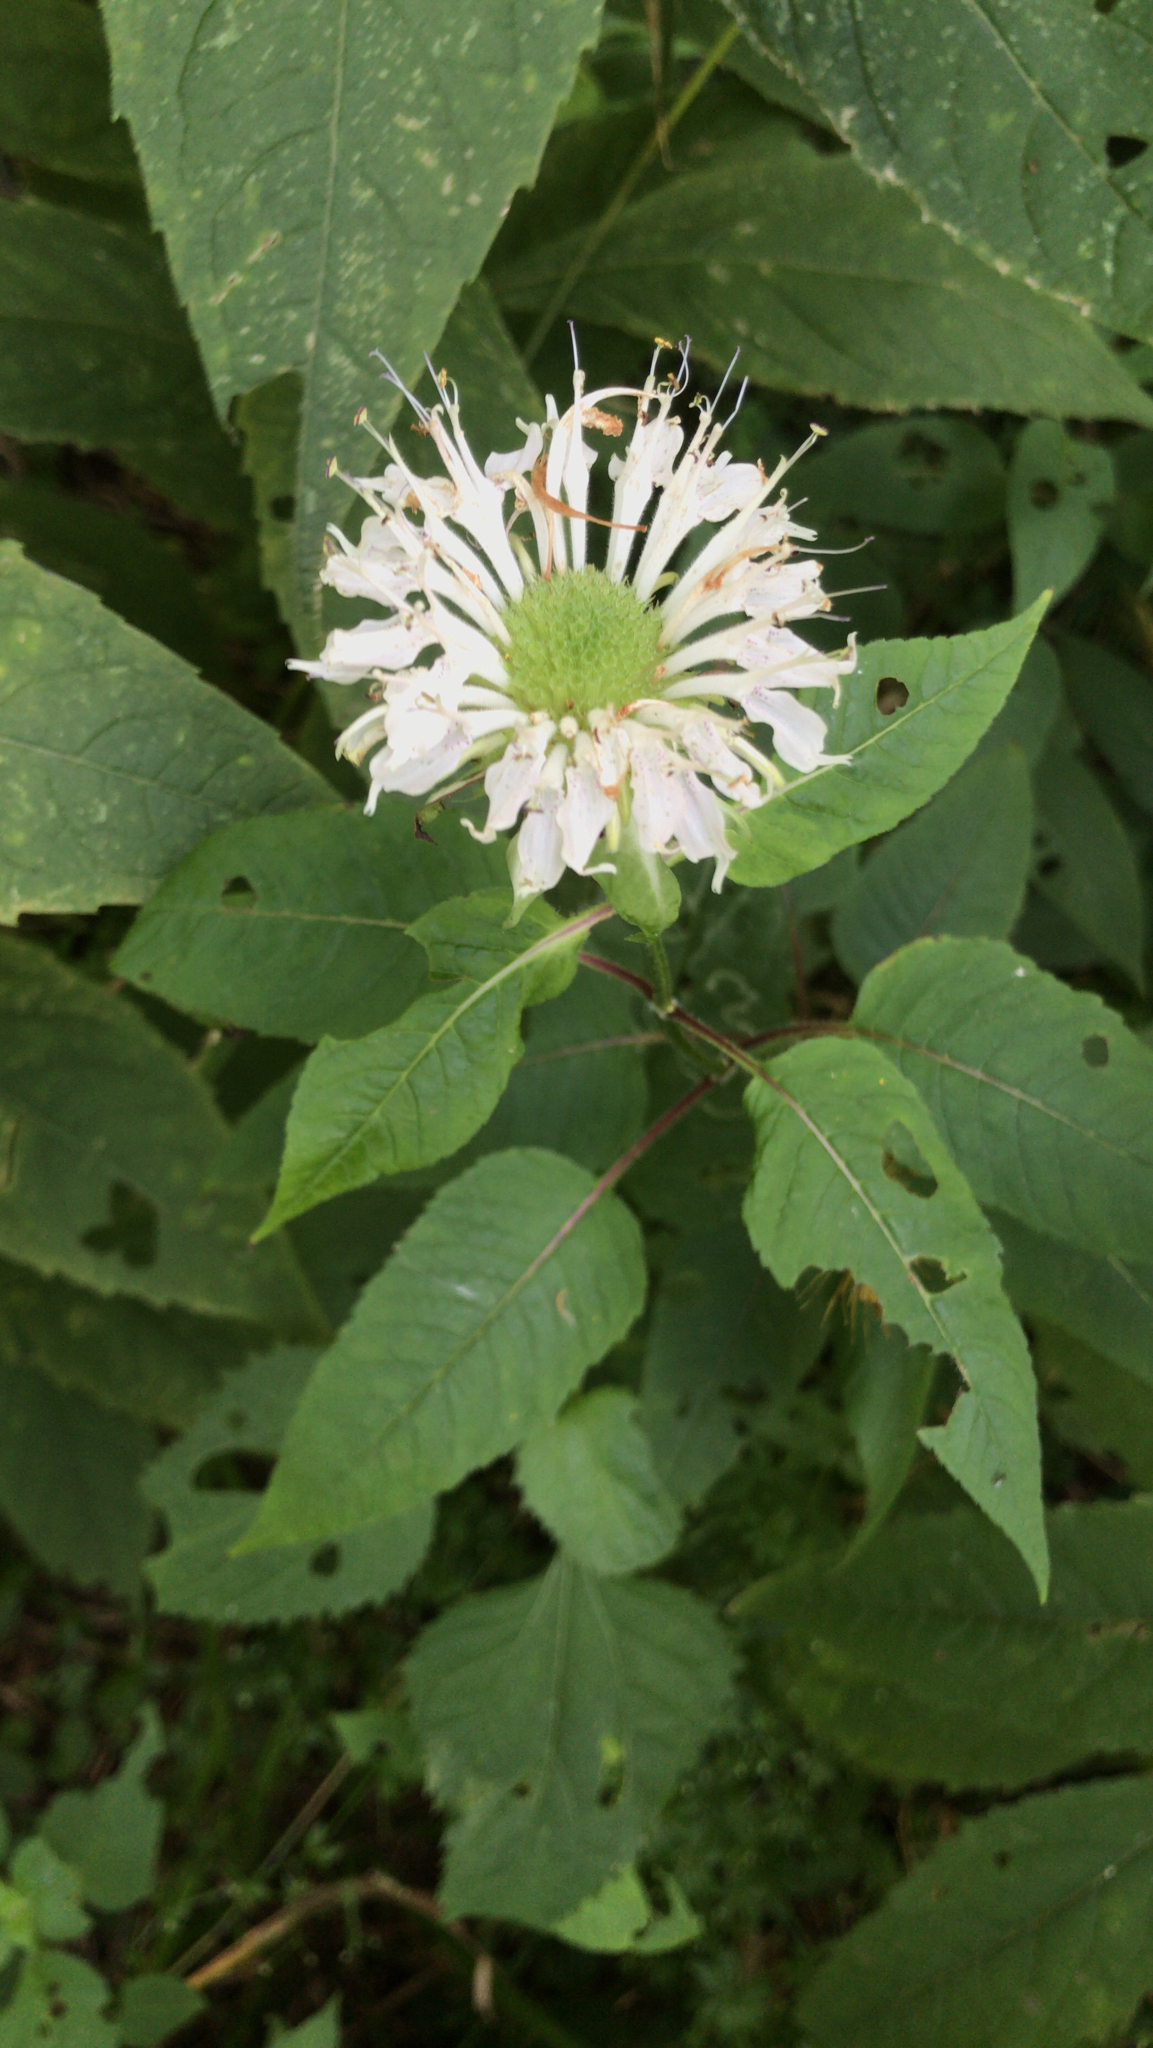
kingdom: Plantae
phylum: Tracheophyta
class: Magnoliopsida
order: Lamiales
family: Lamiaceae
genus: Monarda
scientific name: Monarda clinopodia
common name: Basil beebalm
